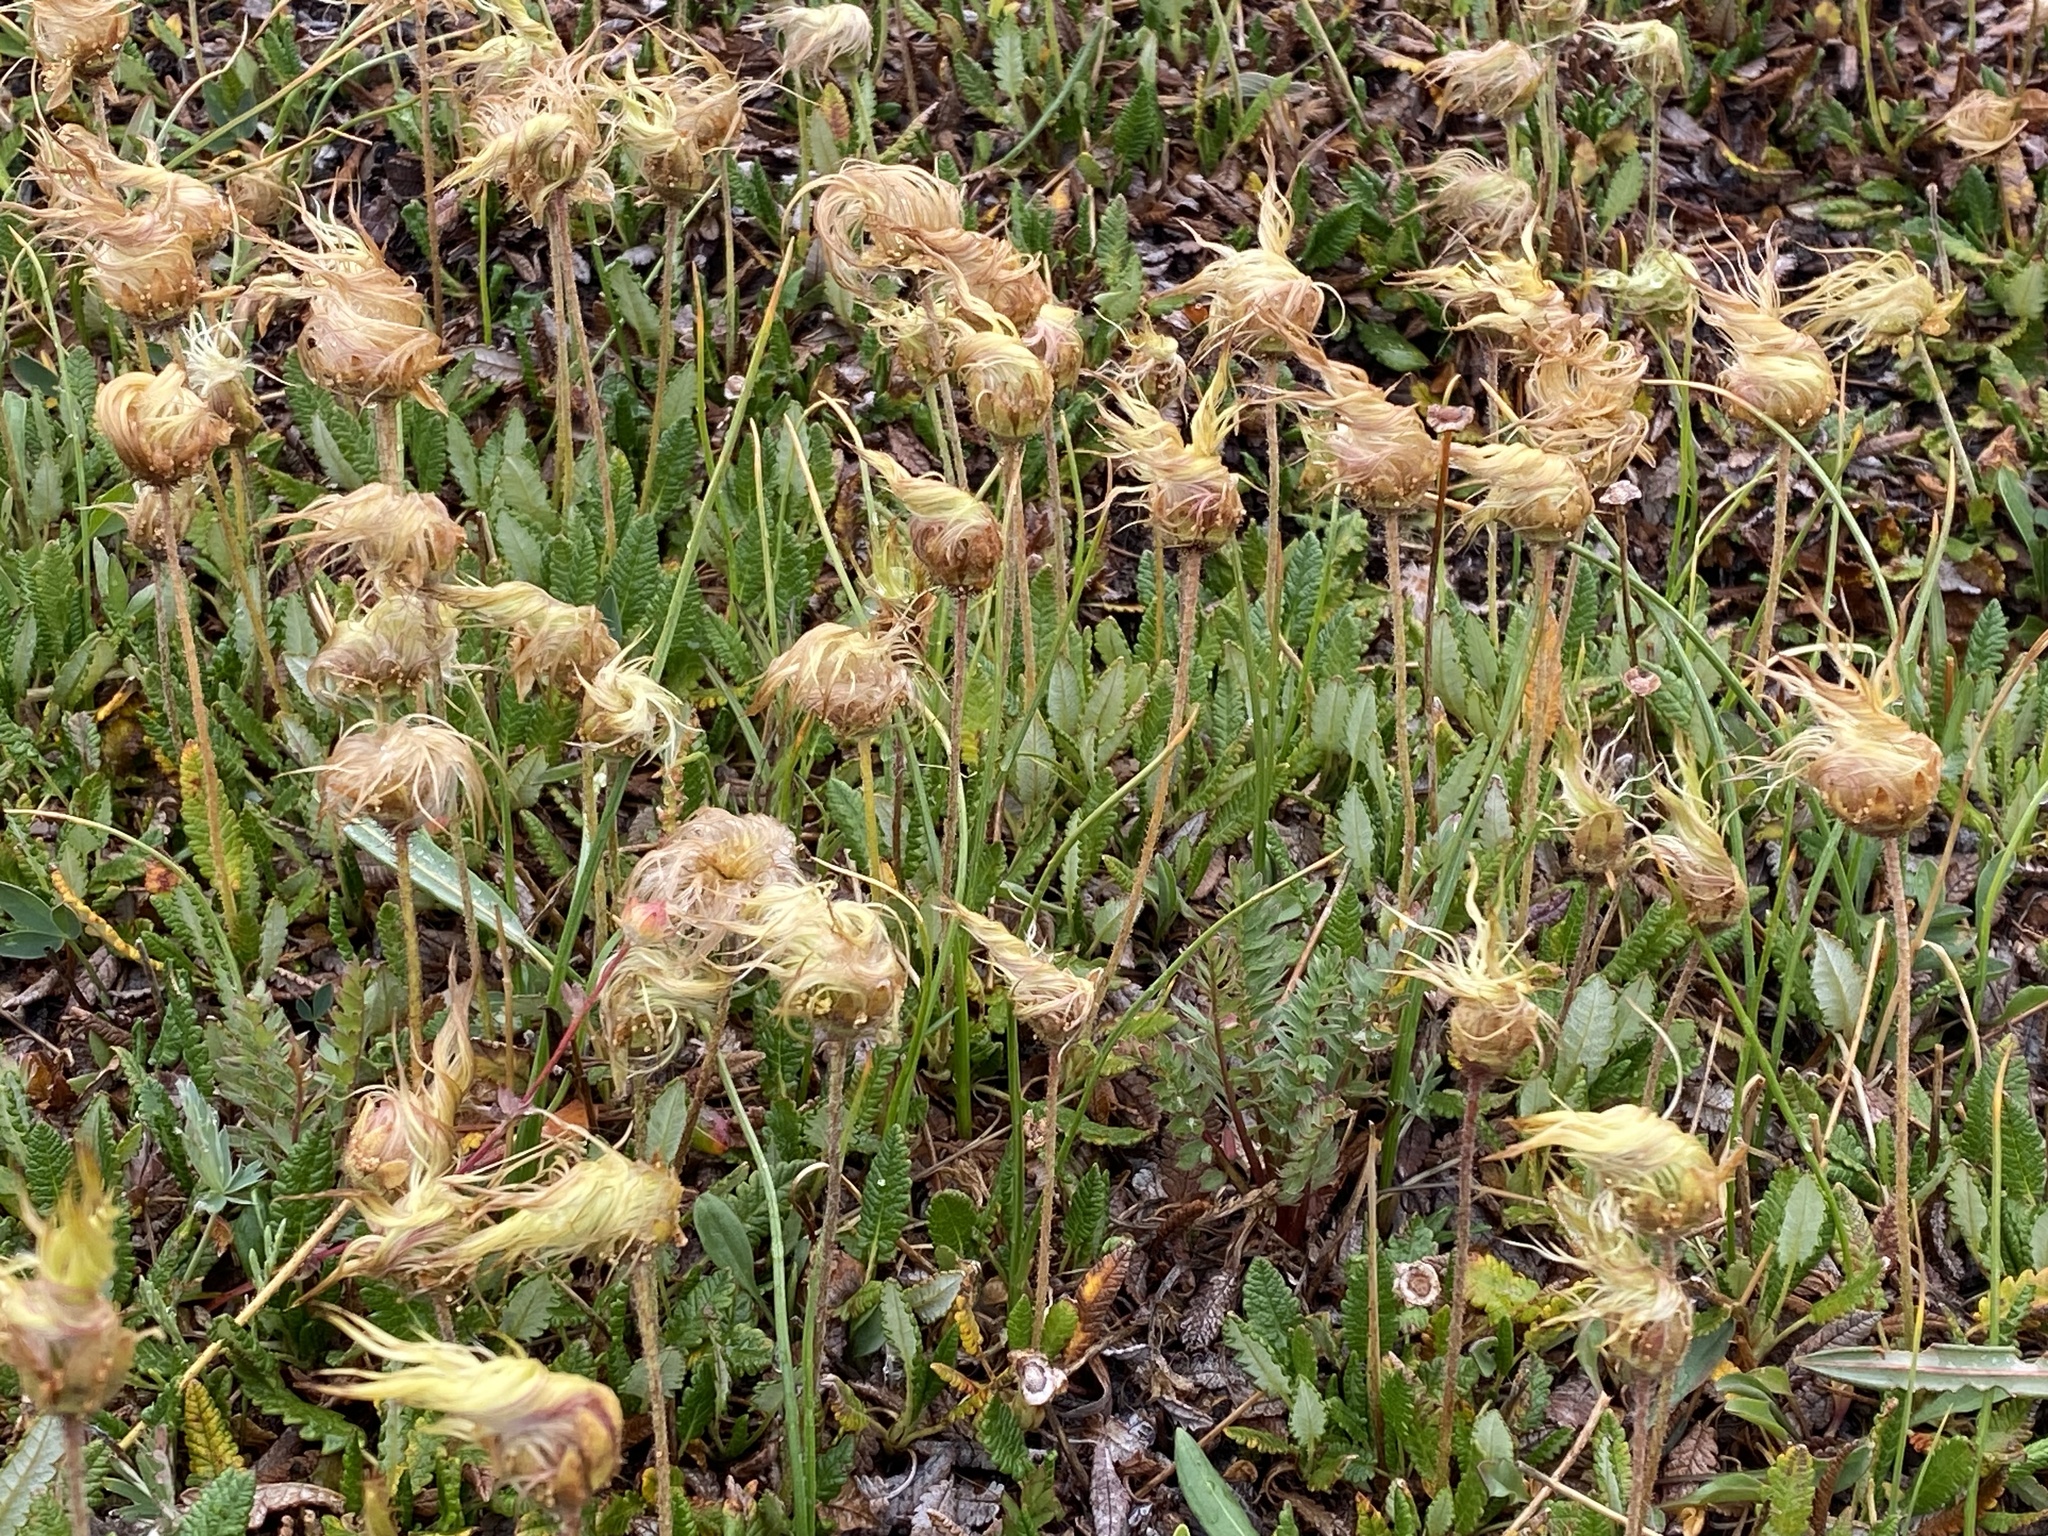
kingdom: Plantae
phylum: Tracheophyta
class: Magnoliopsida
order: Rosales
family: Rosaceae
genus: Dryas
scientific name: Dryas octopetala
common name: Eight-petal mountain-avens
